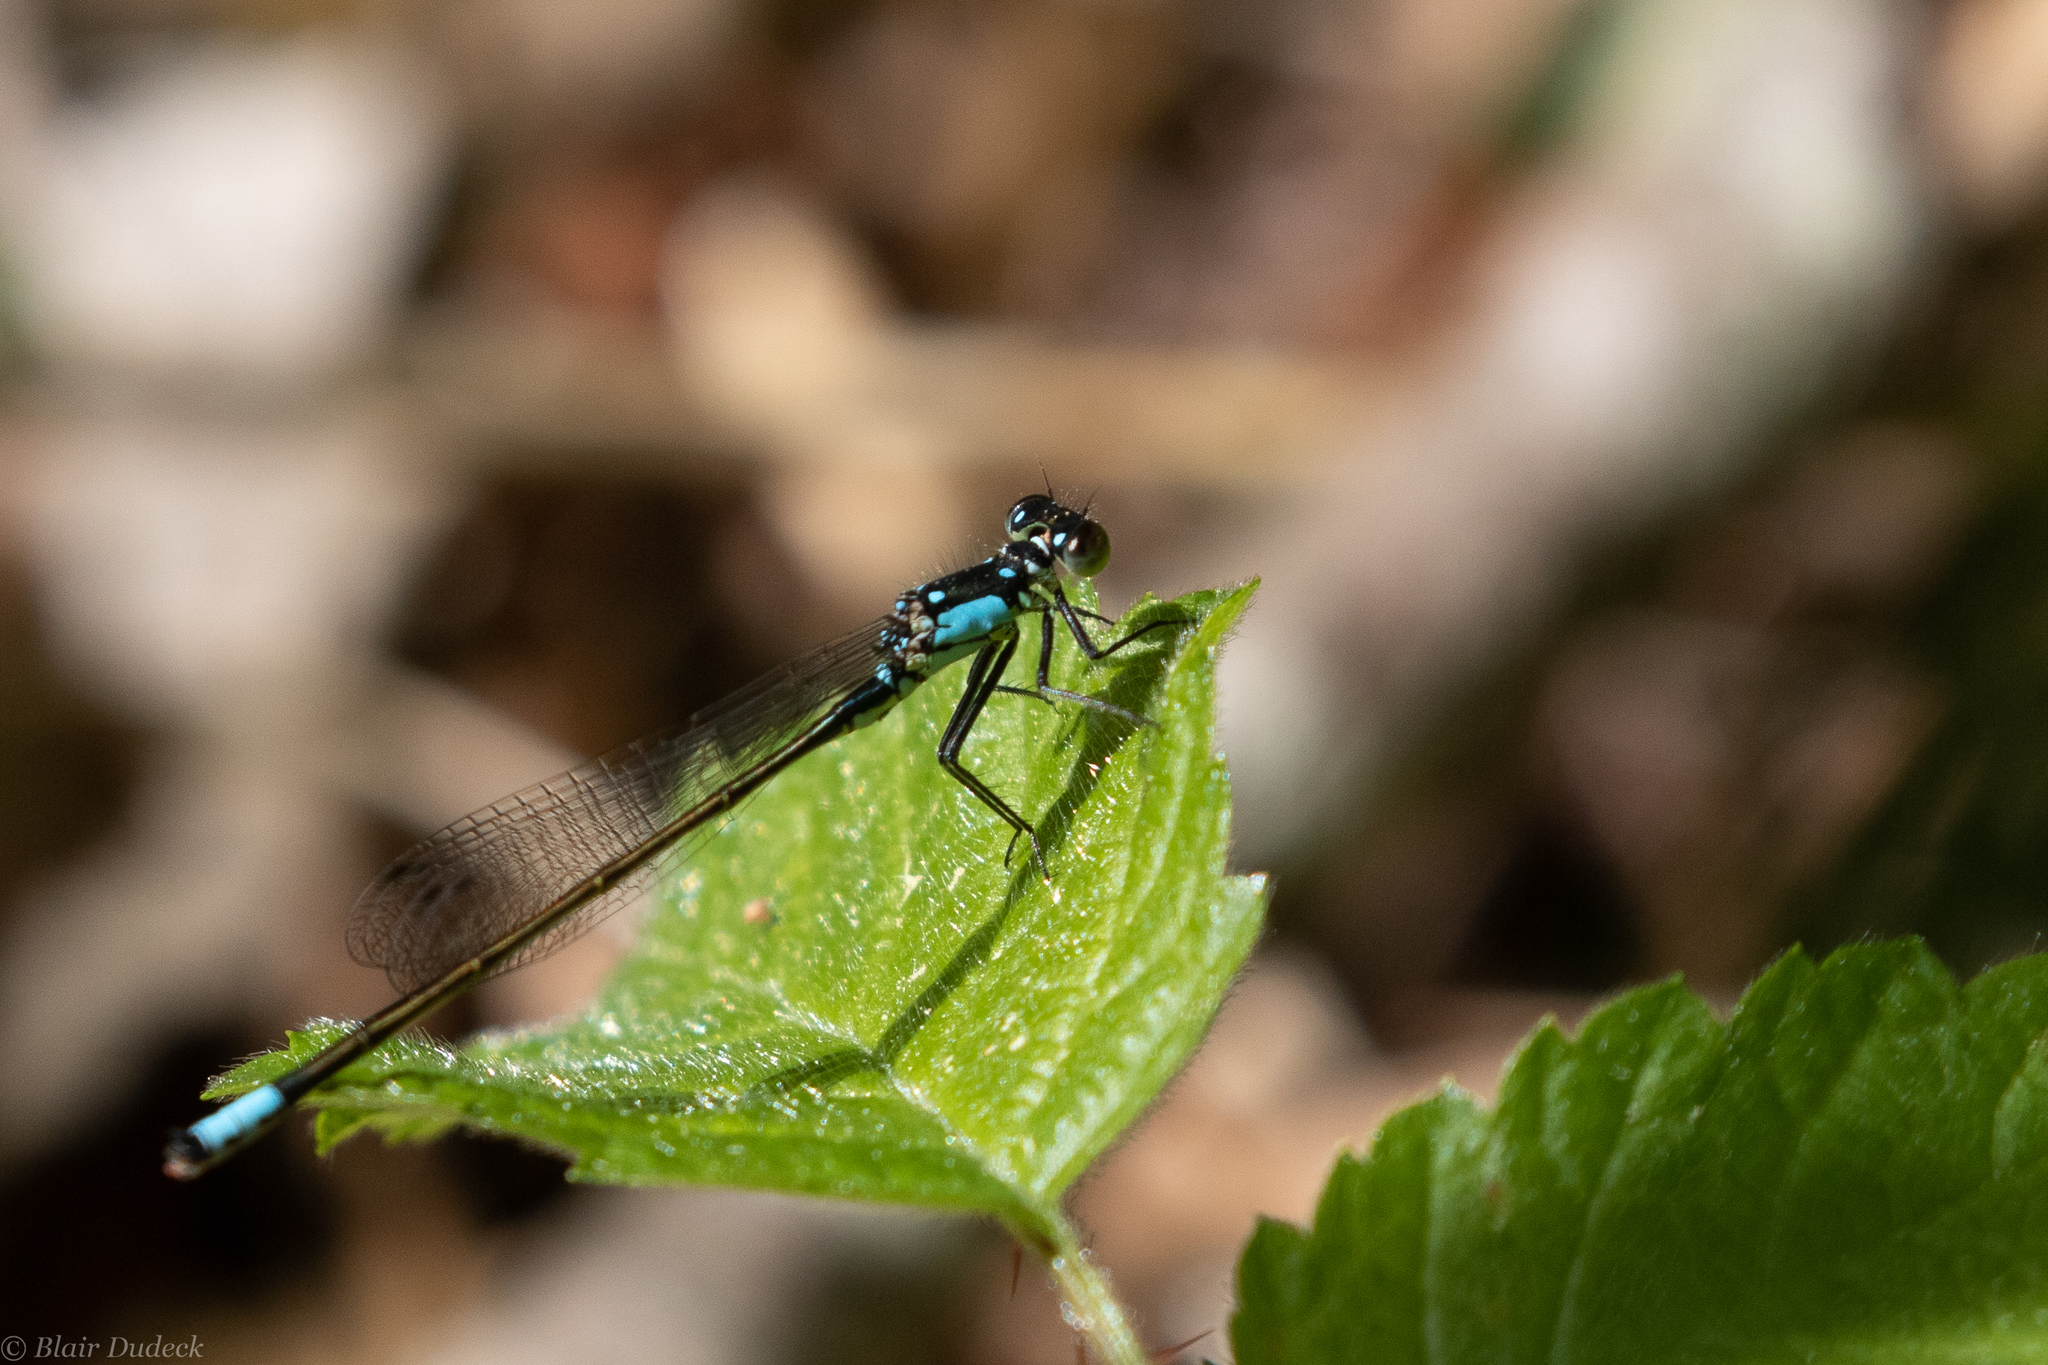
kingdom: Animalia
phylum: Arthropoda
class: Insecta
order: Odonata
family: Coenagrionidae
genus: Ischnura
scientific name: Ischnura cervula
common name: Pacific forktail
